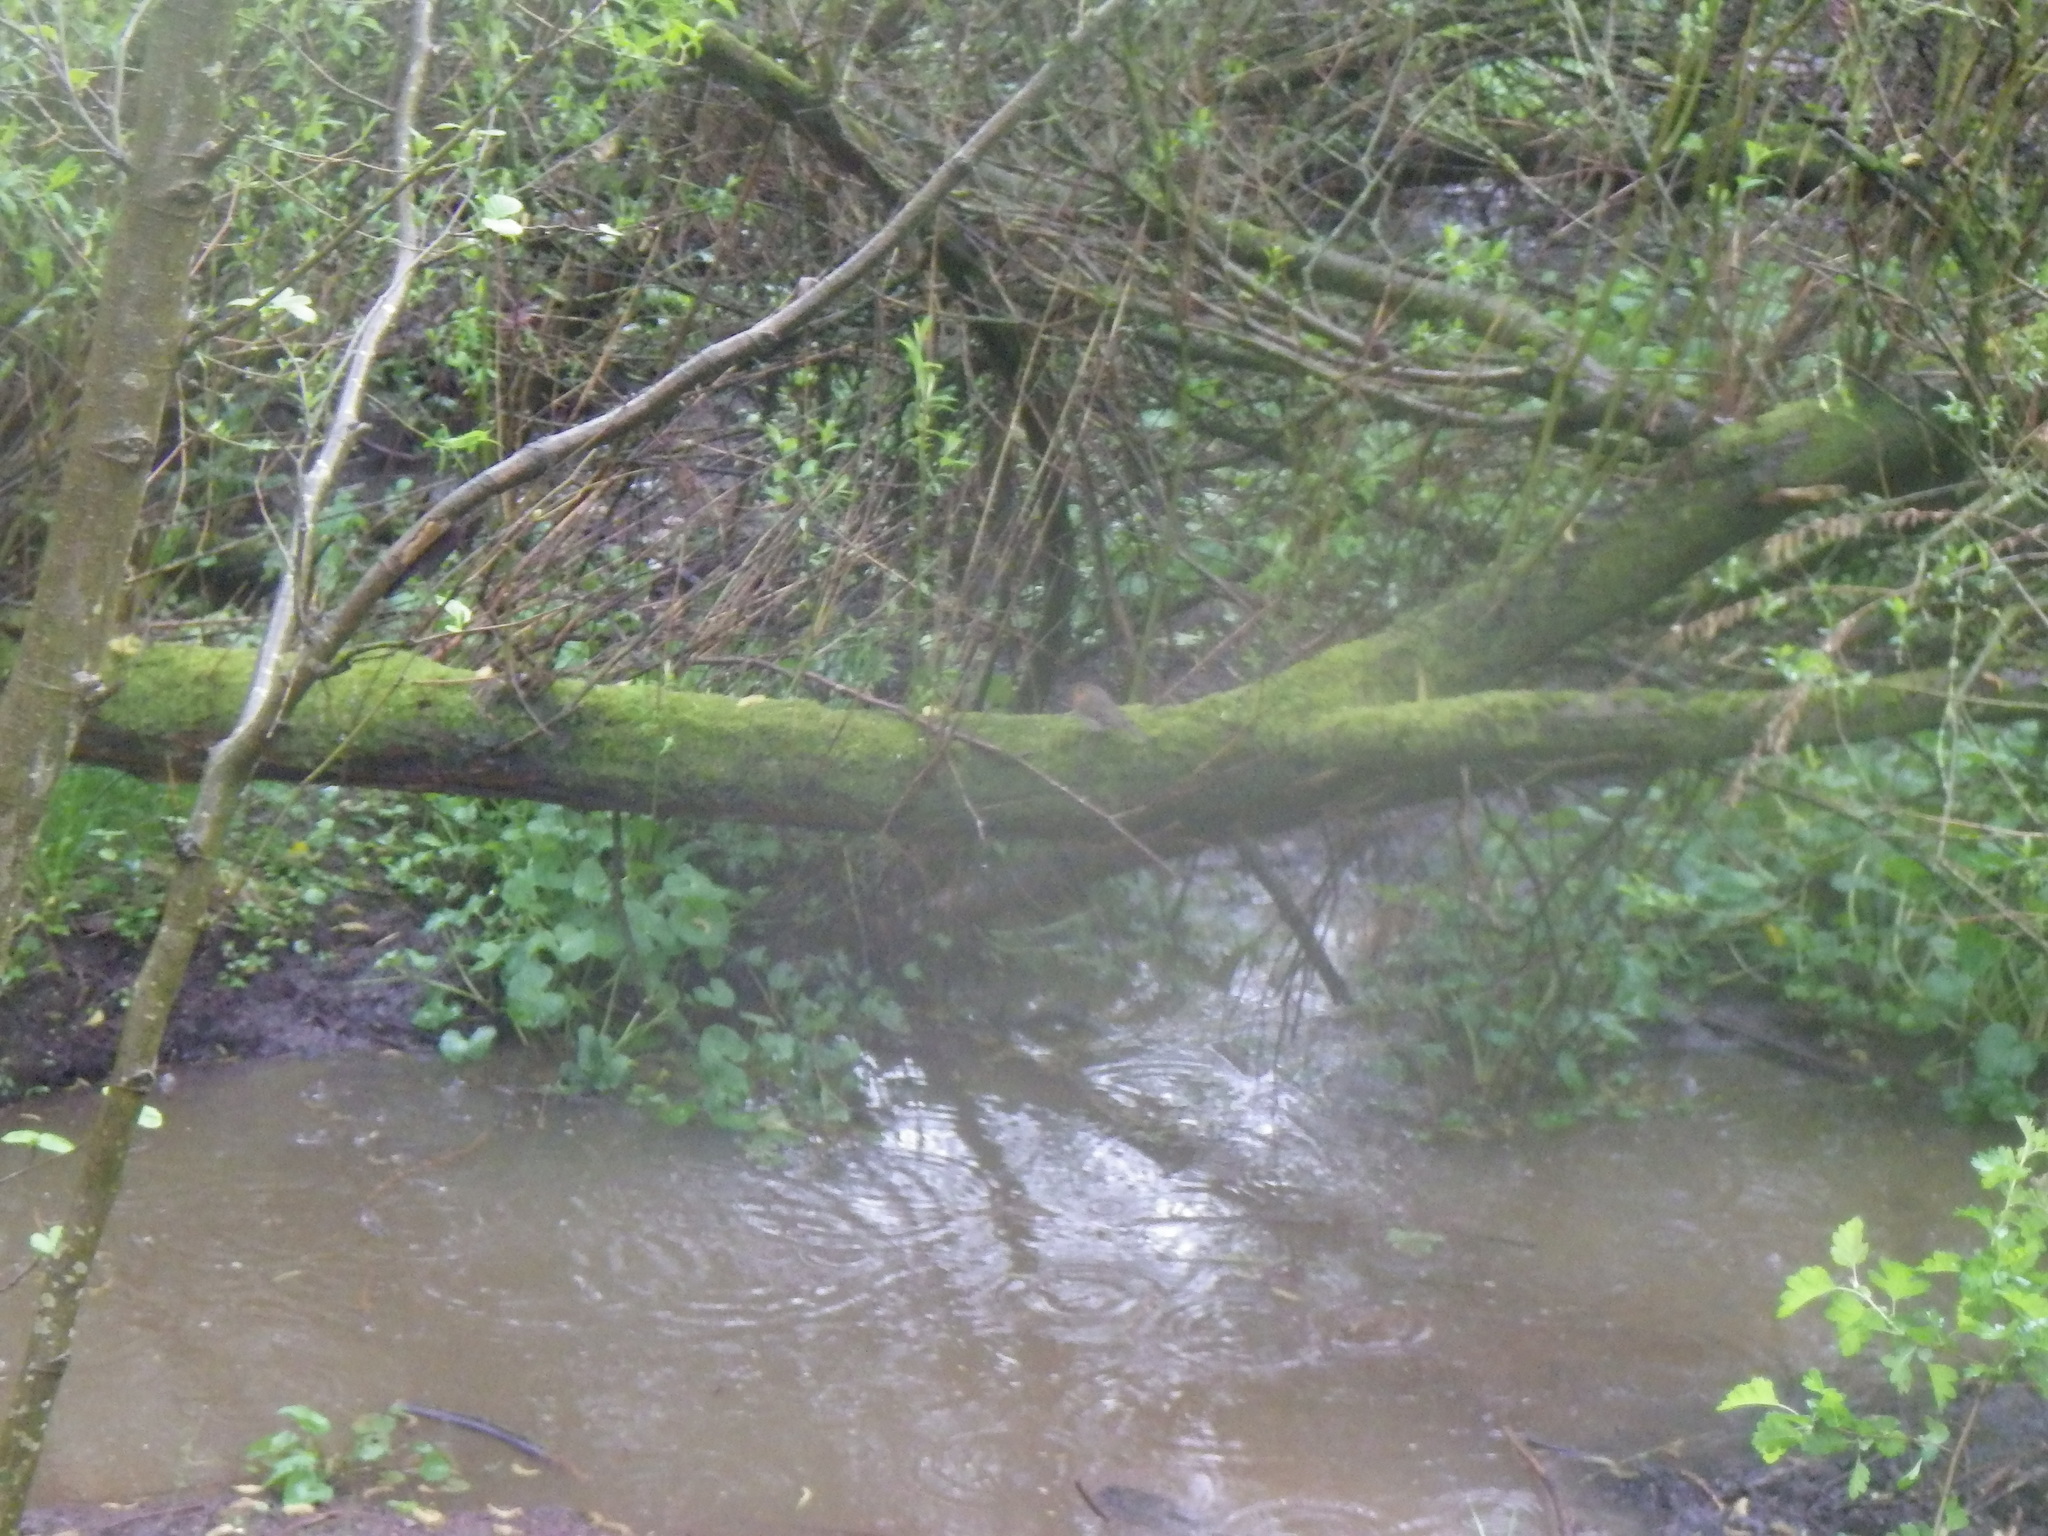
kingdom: Animalia
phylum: Chordata
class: Aves
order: Passeriformes
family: Muscicapidae
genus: Erithacus
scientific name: Erithacus rubecula
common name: European robin
